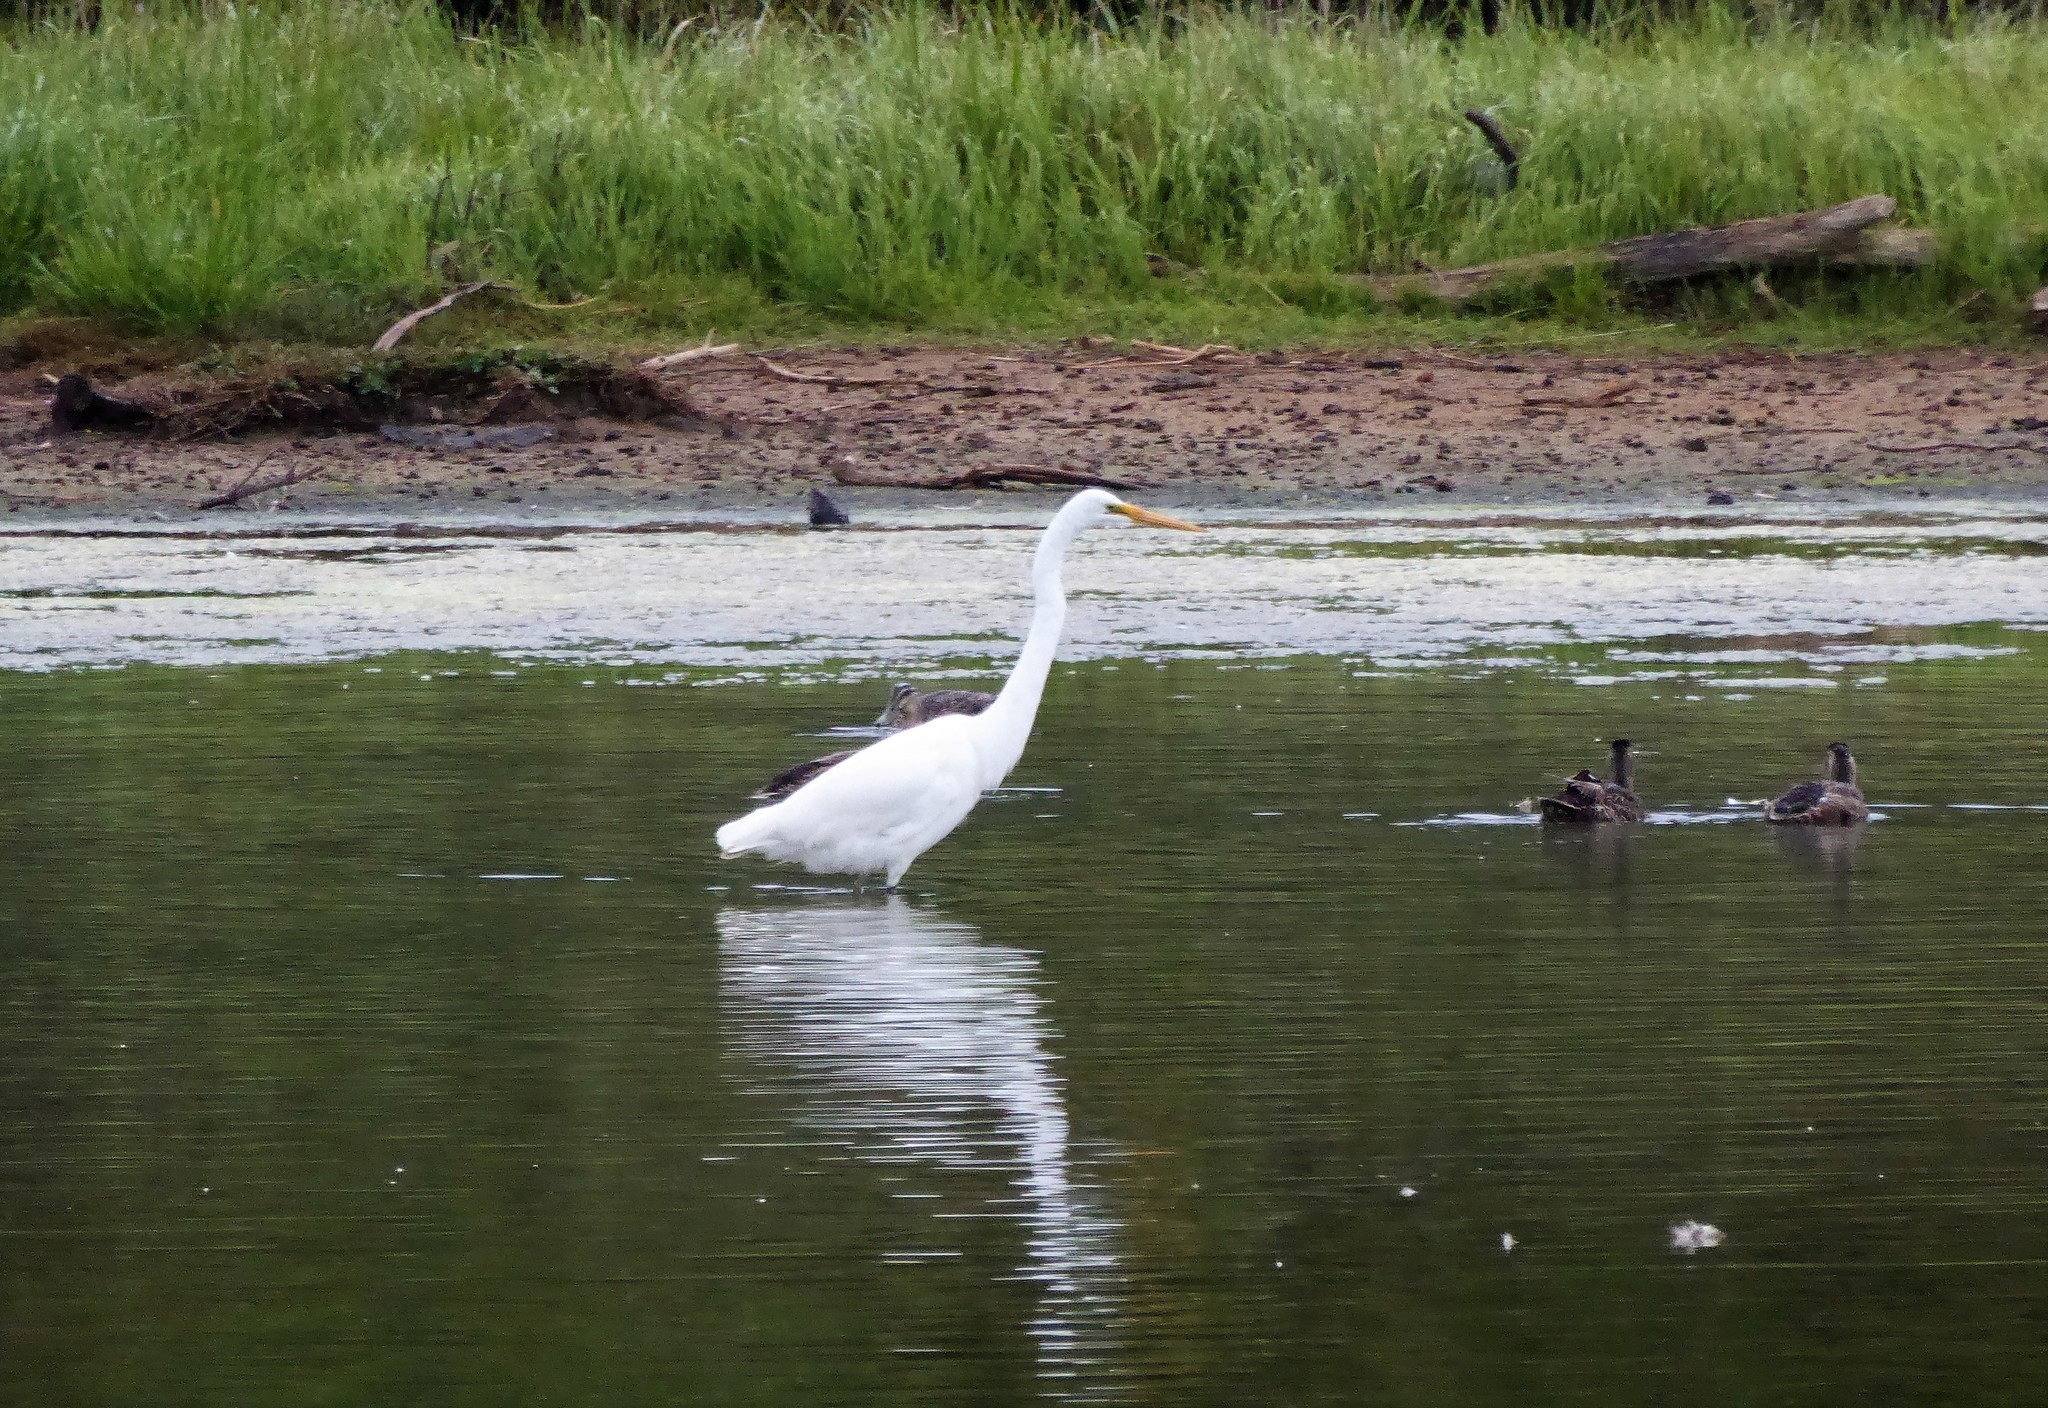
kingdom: Animalia
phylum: Chordata
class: Aves
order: Pelecaniformes
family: Ardeidae
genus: Ardea
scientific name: Ardea modesta
